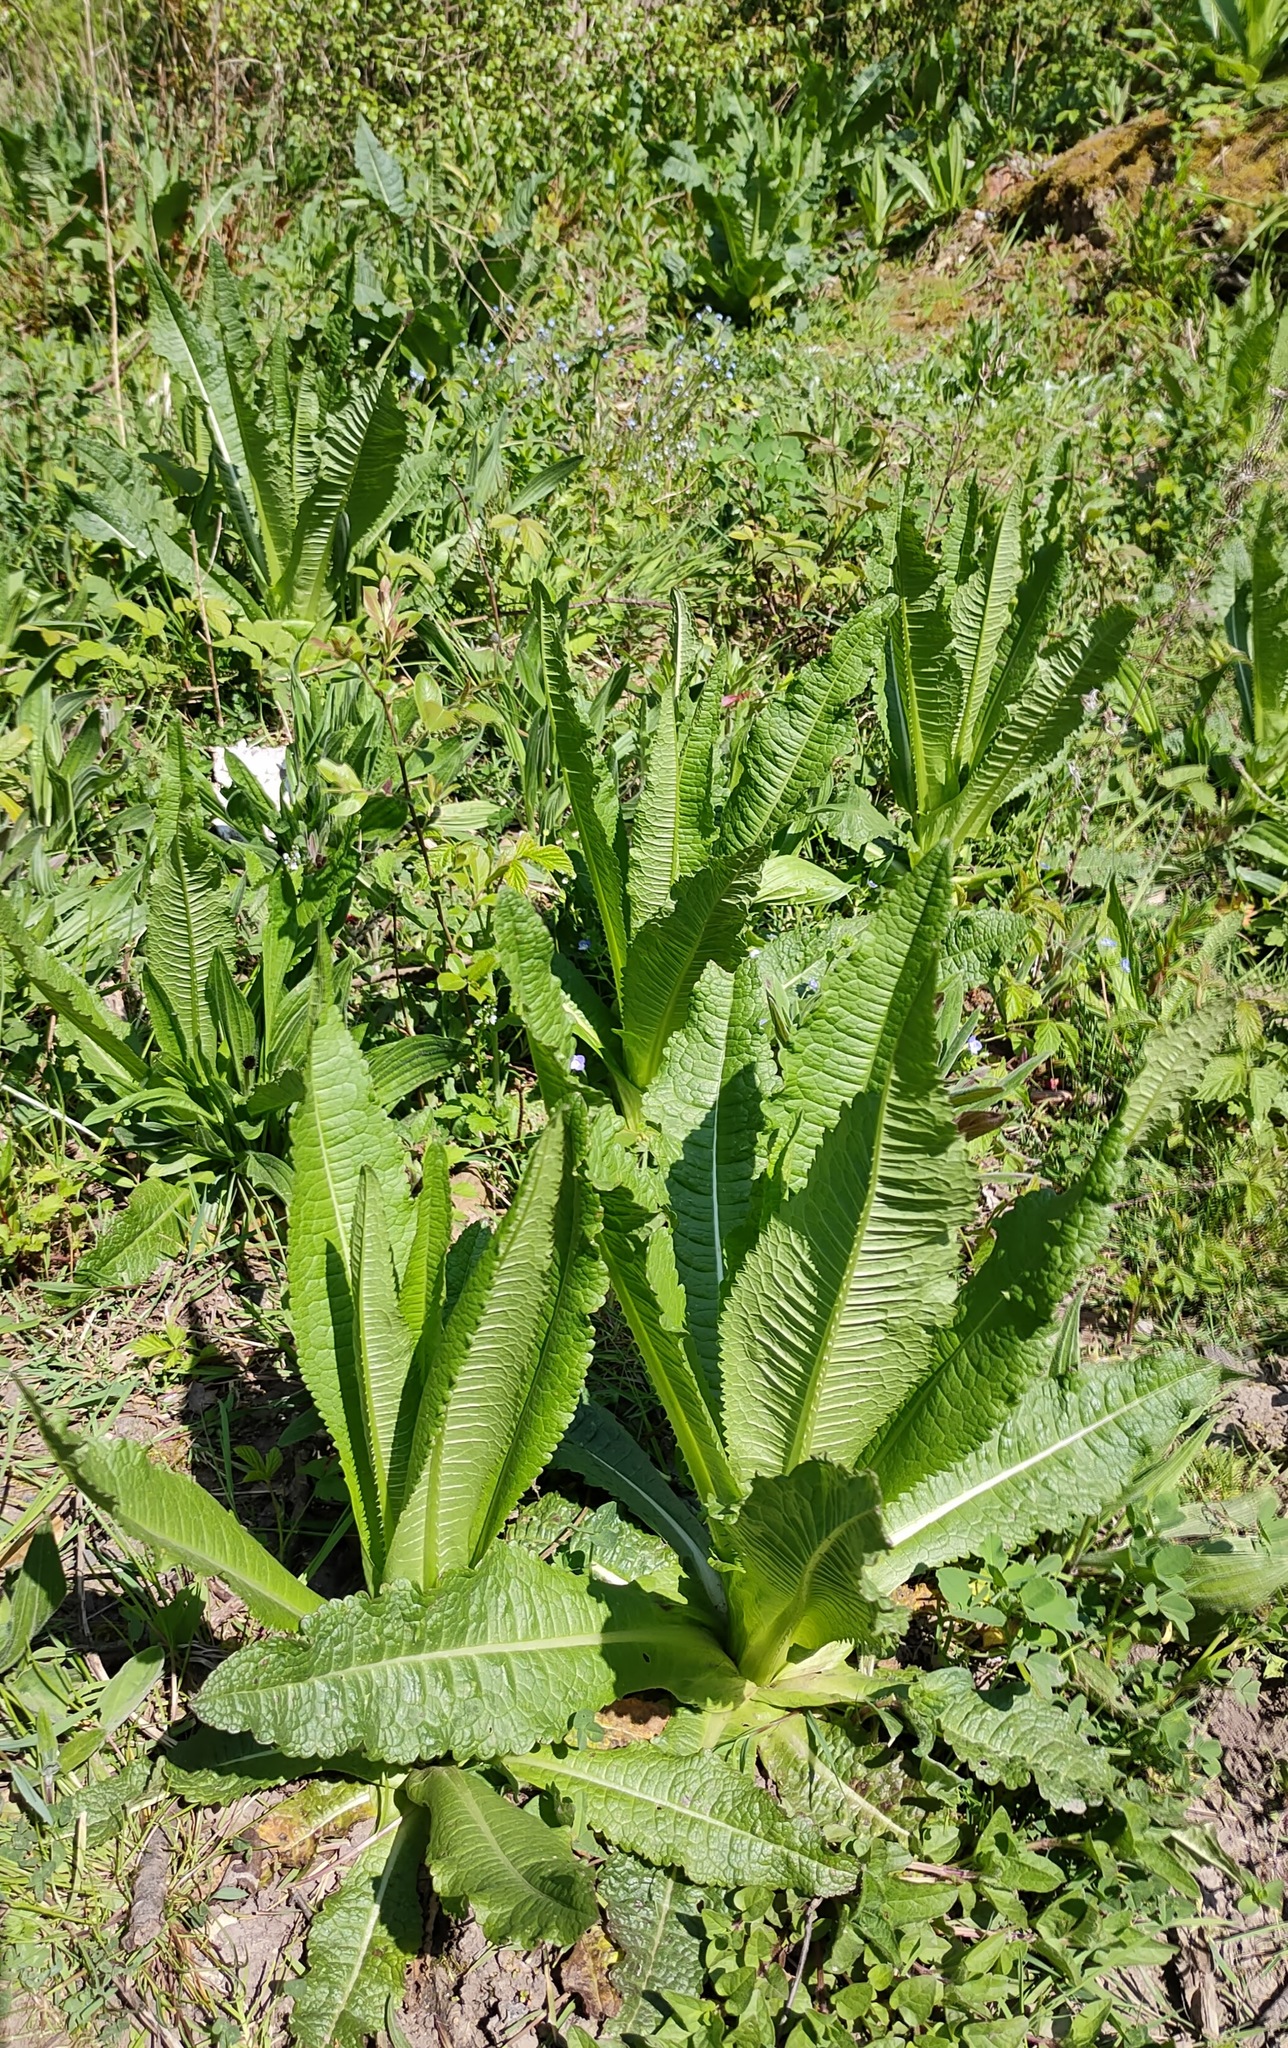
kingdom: Plantae
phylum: Tracheophyta
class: Magnoliopsida
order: Dipsacales
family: Caprifoliaceae
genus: Dipsacus
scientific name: Dipsacus fullonum
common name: Teasel
